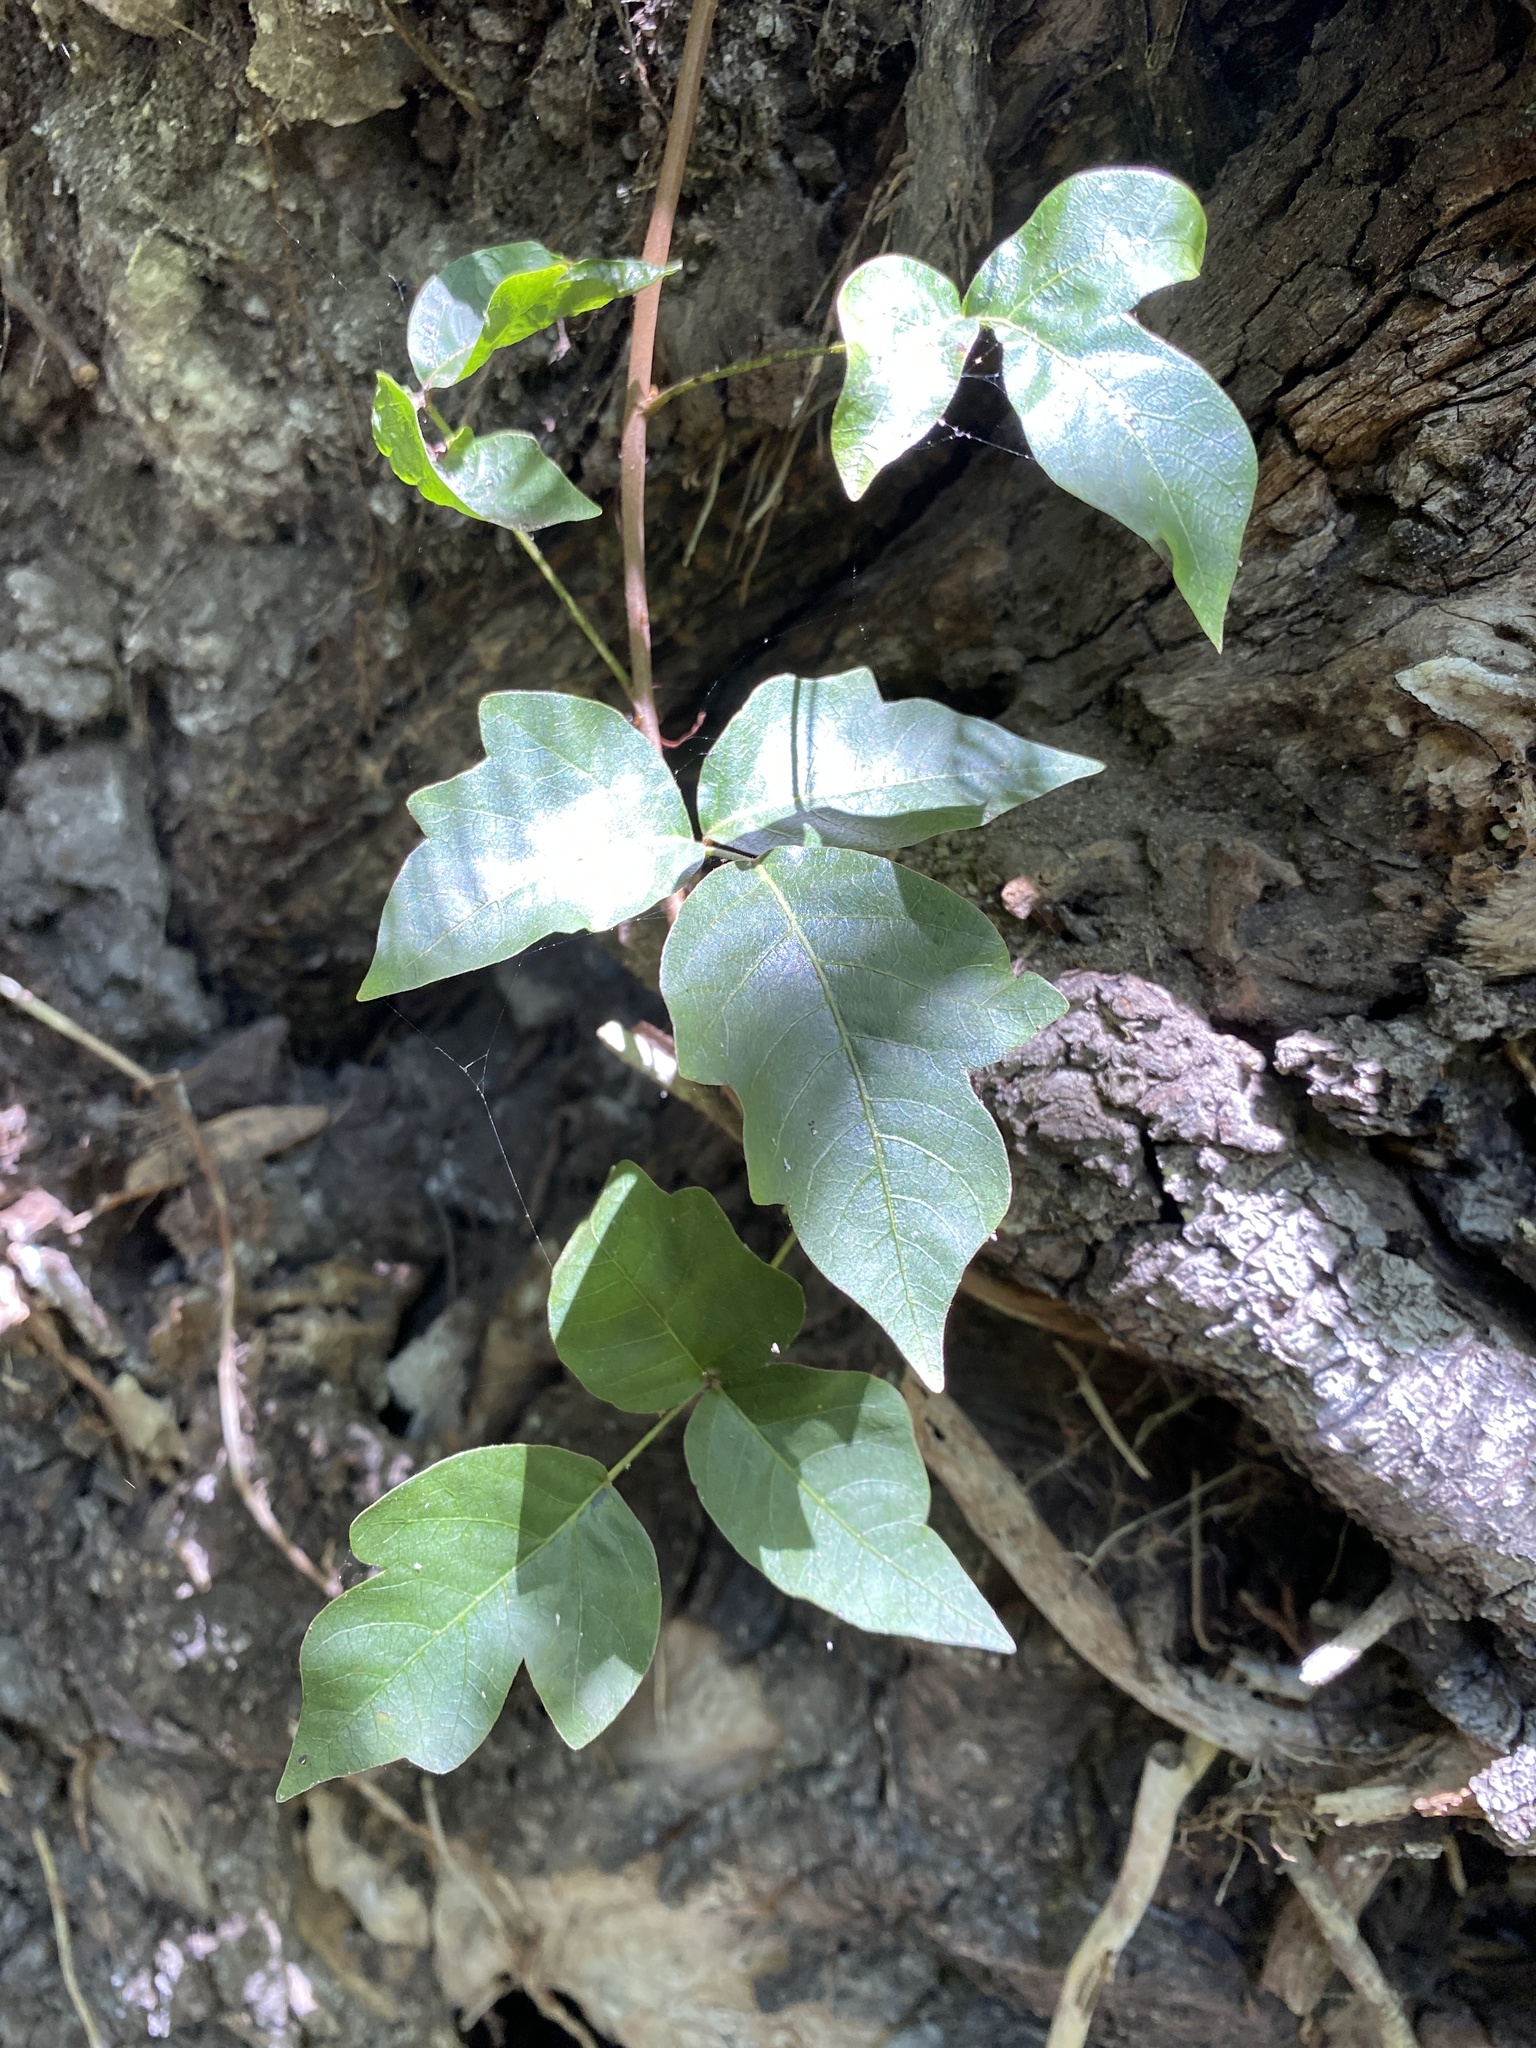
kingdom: Plantae
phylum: Tracheophyta
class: Magnoliopsida
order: Sapindales
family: Anacardiaceae
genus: Toxicodendron
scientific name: Toxicodendron radicans
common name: Poison ivy
